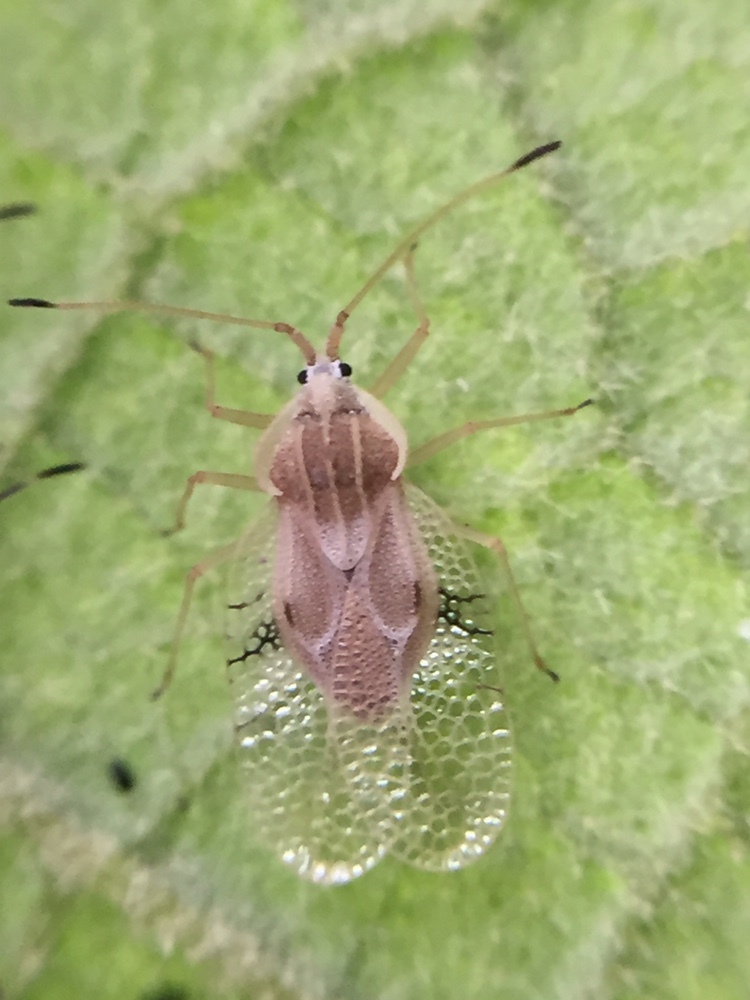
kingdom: Animalia
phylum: Arthropoda
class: Insecta
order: Hemiptera
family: Tingidae
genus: Gargaphia
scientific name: Gargaphia decoris
